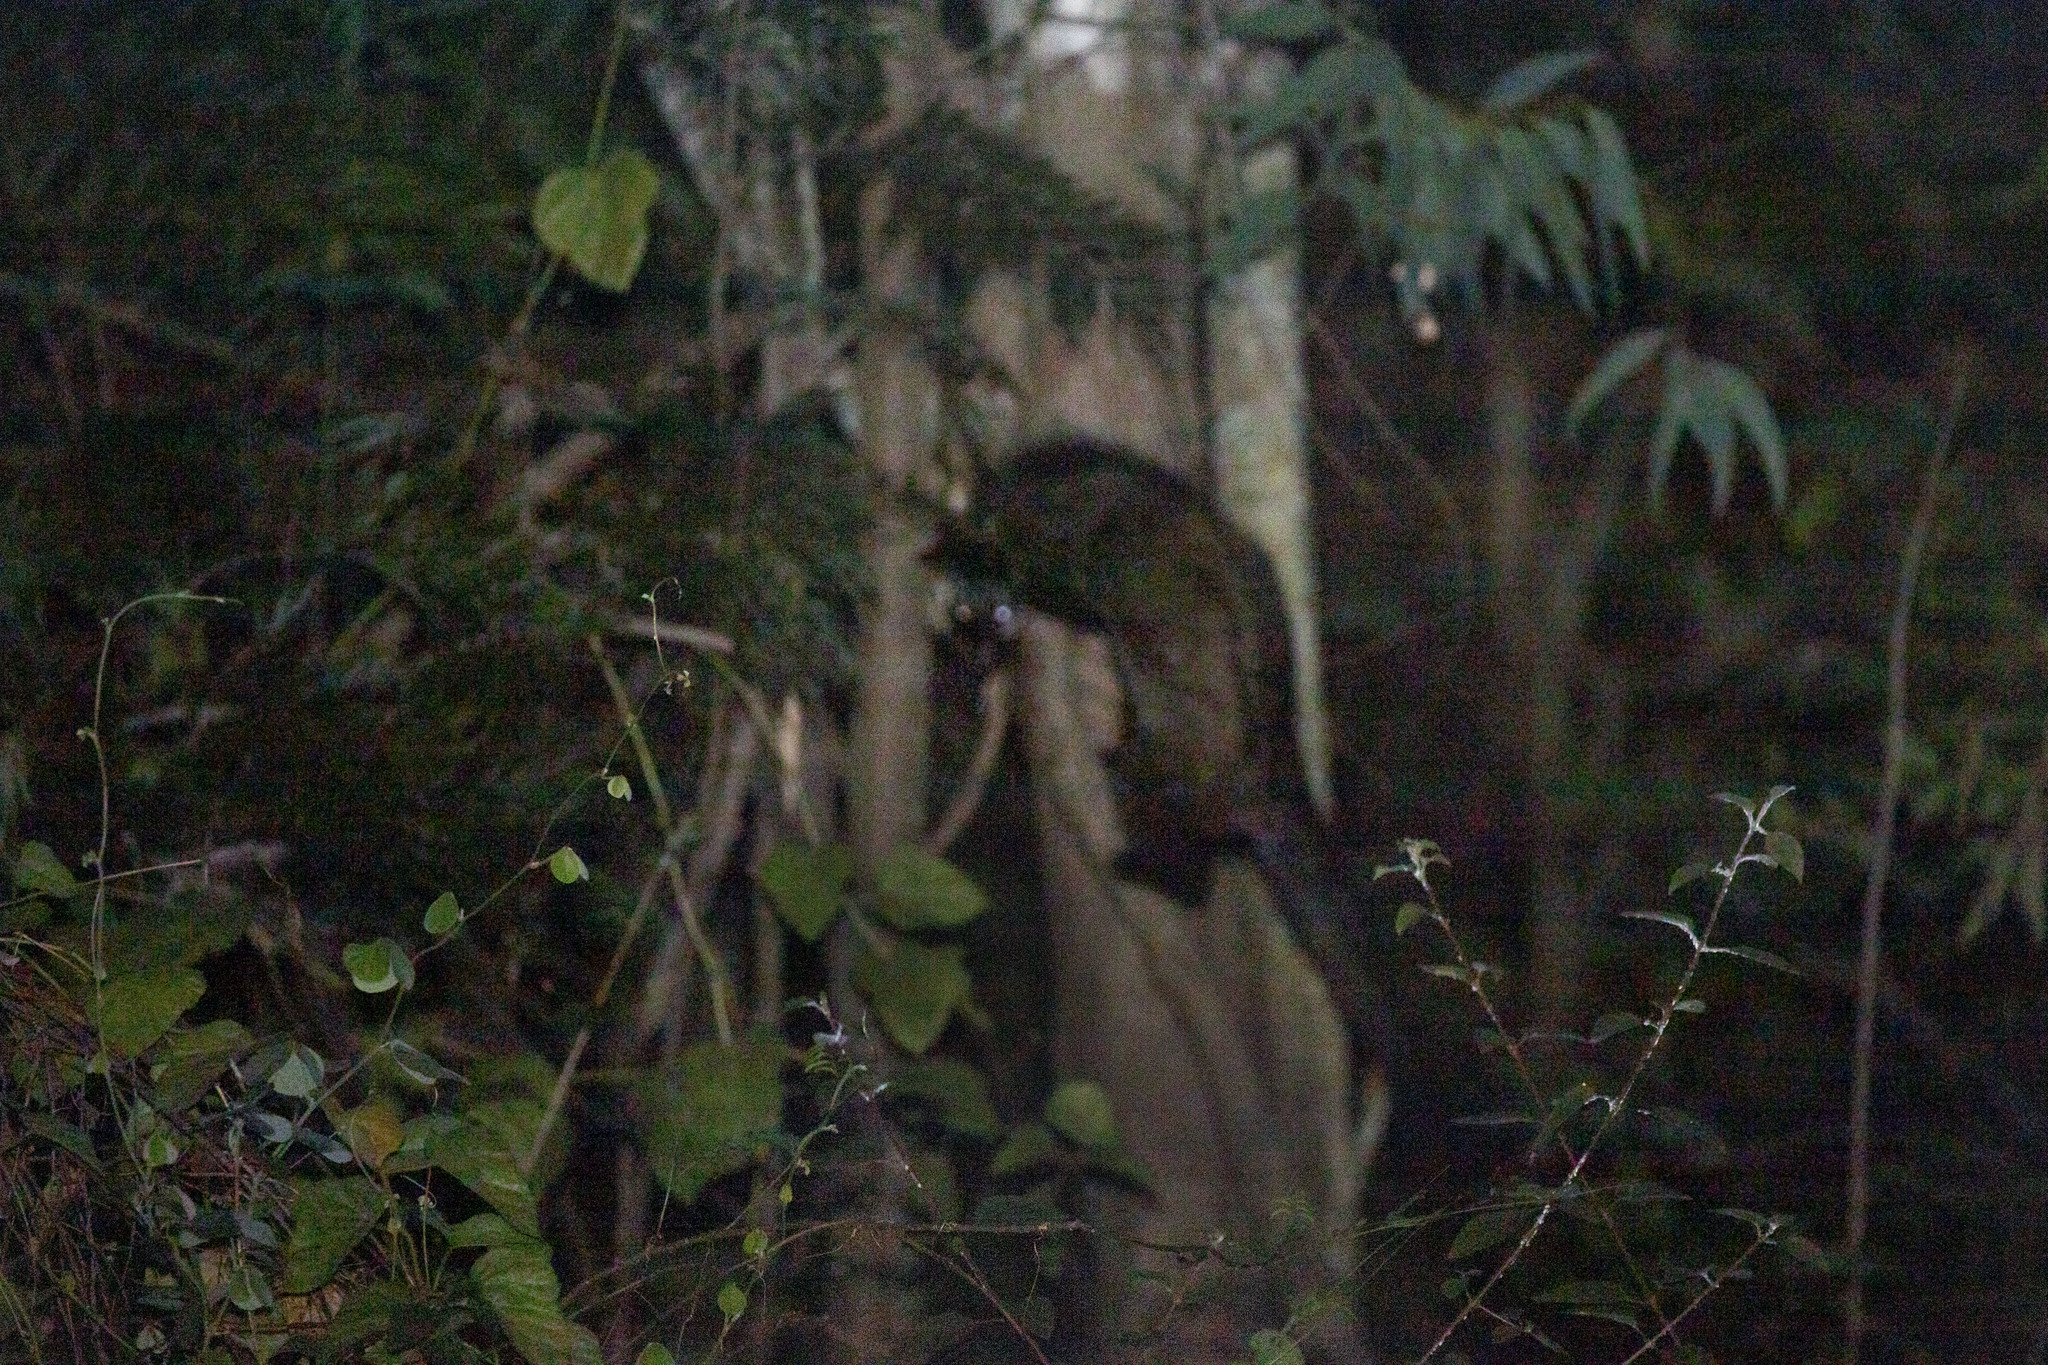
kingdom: Animalia
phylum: Chordata
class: Mammalia
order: Carnivora
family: Viverridae
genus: Paradoxurus
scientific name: Paradoxurus hermaphroditus
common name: Common palm civet
